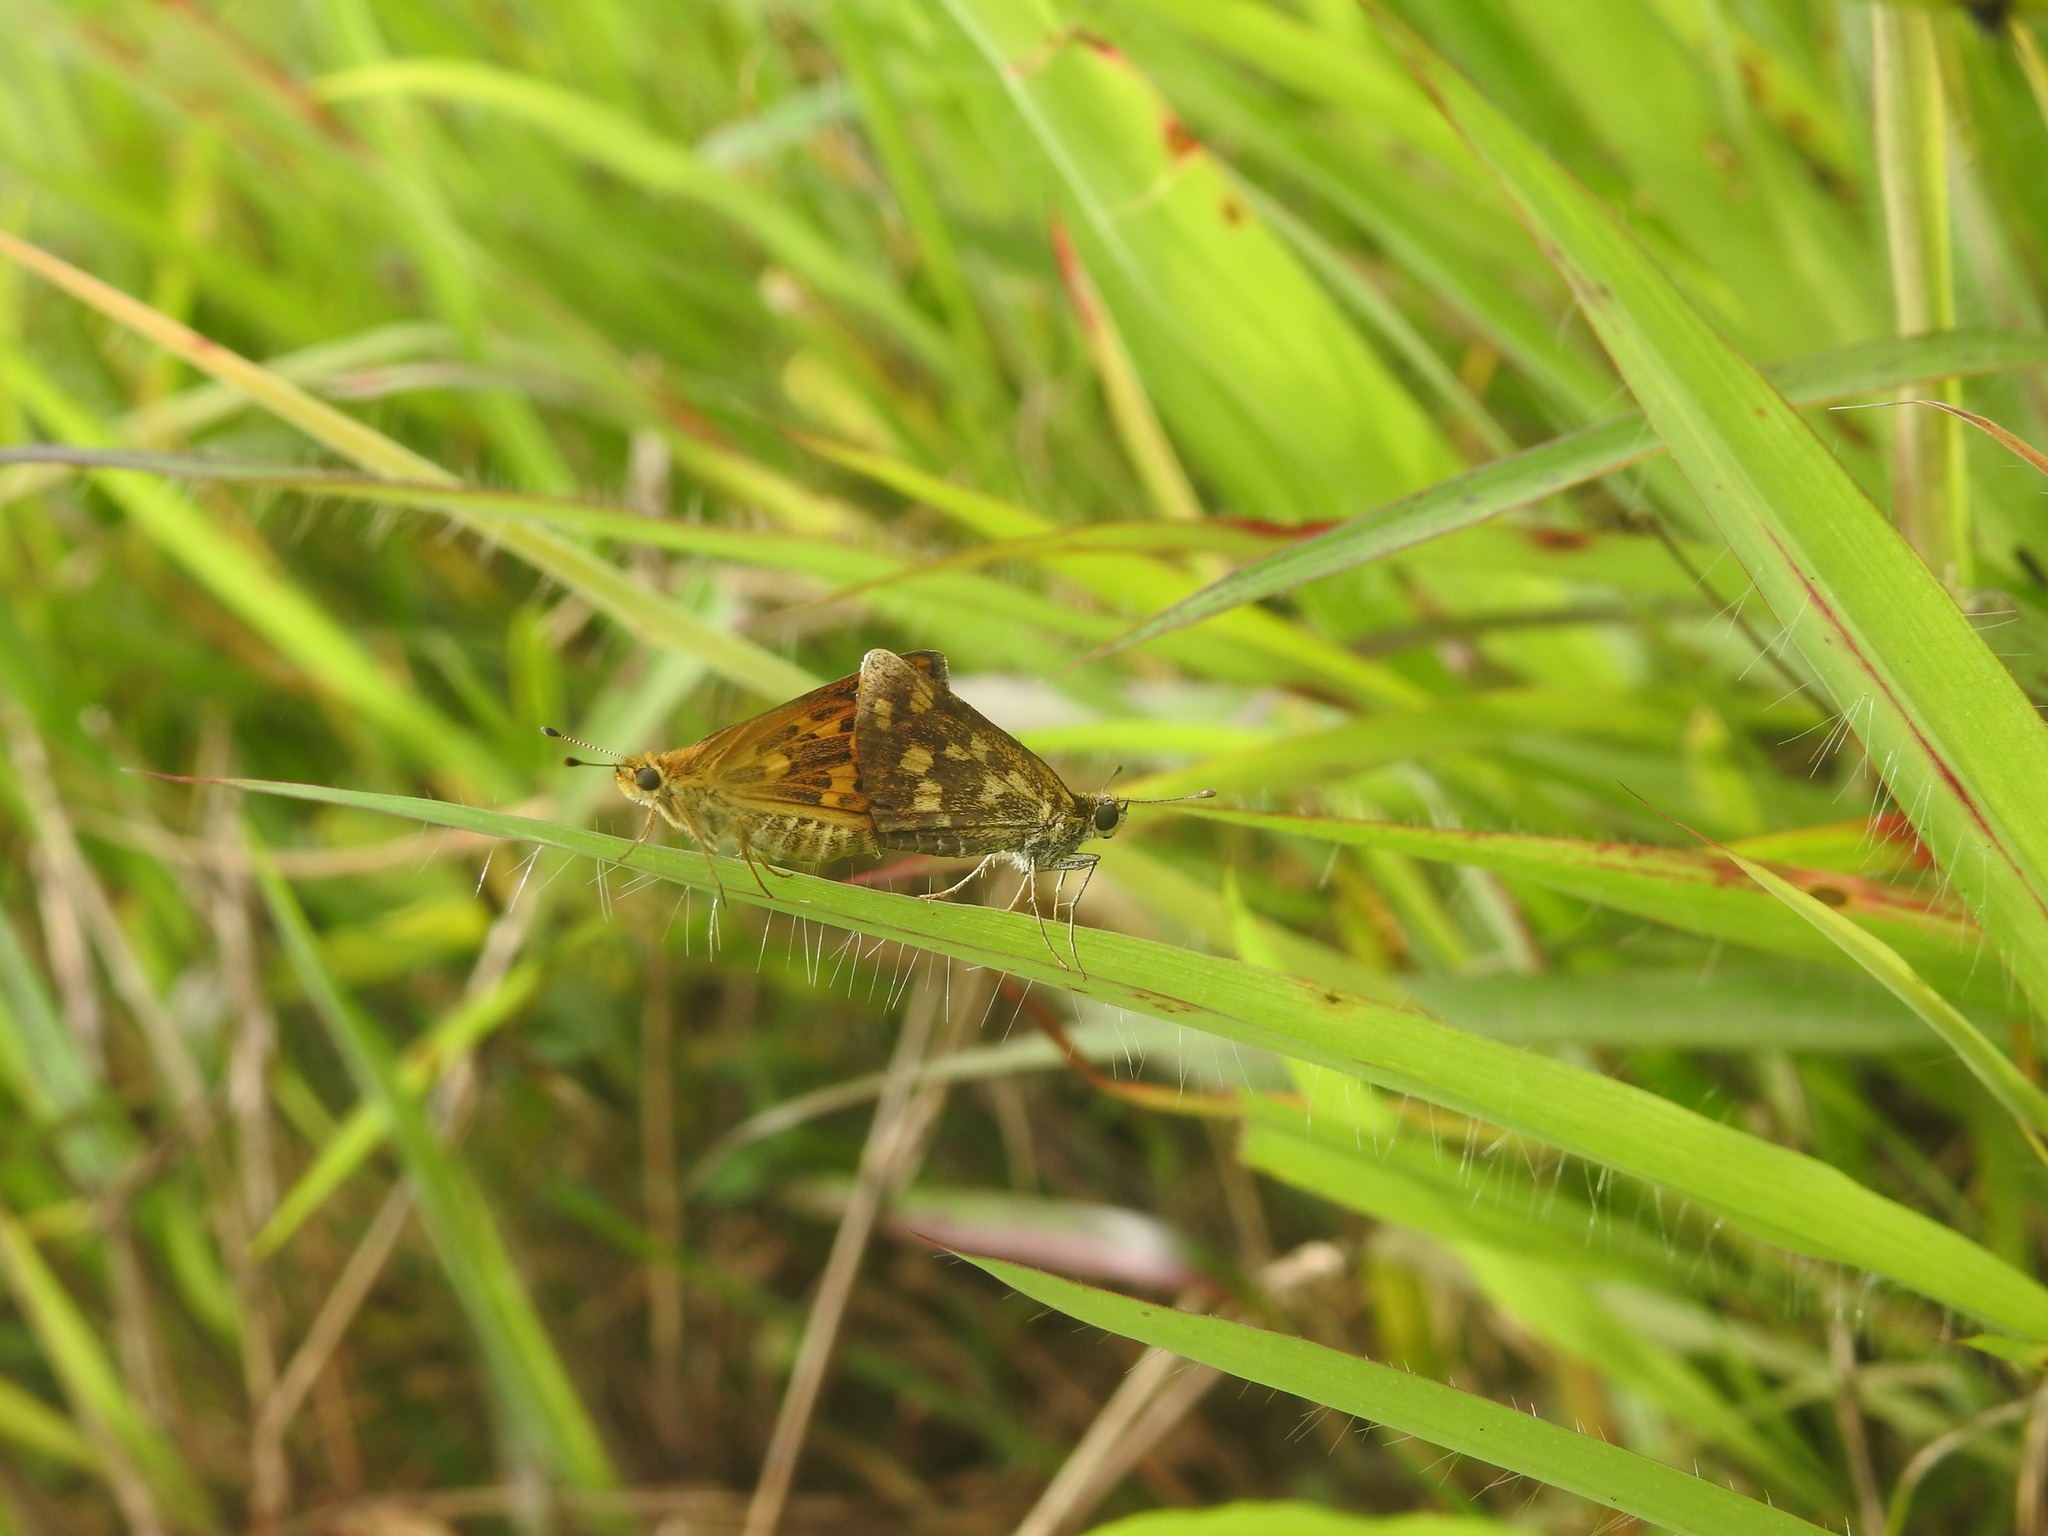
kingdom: Animalia
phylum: Arthropoda
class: Insecta
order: Lepidoptera
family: Hesperiidae
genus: Taractrocera
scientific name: Taractrocera ceramas
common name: Tamil grass dart
